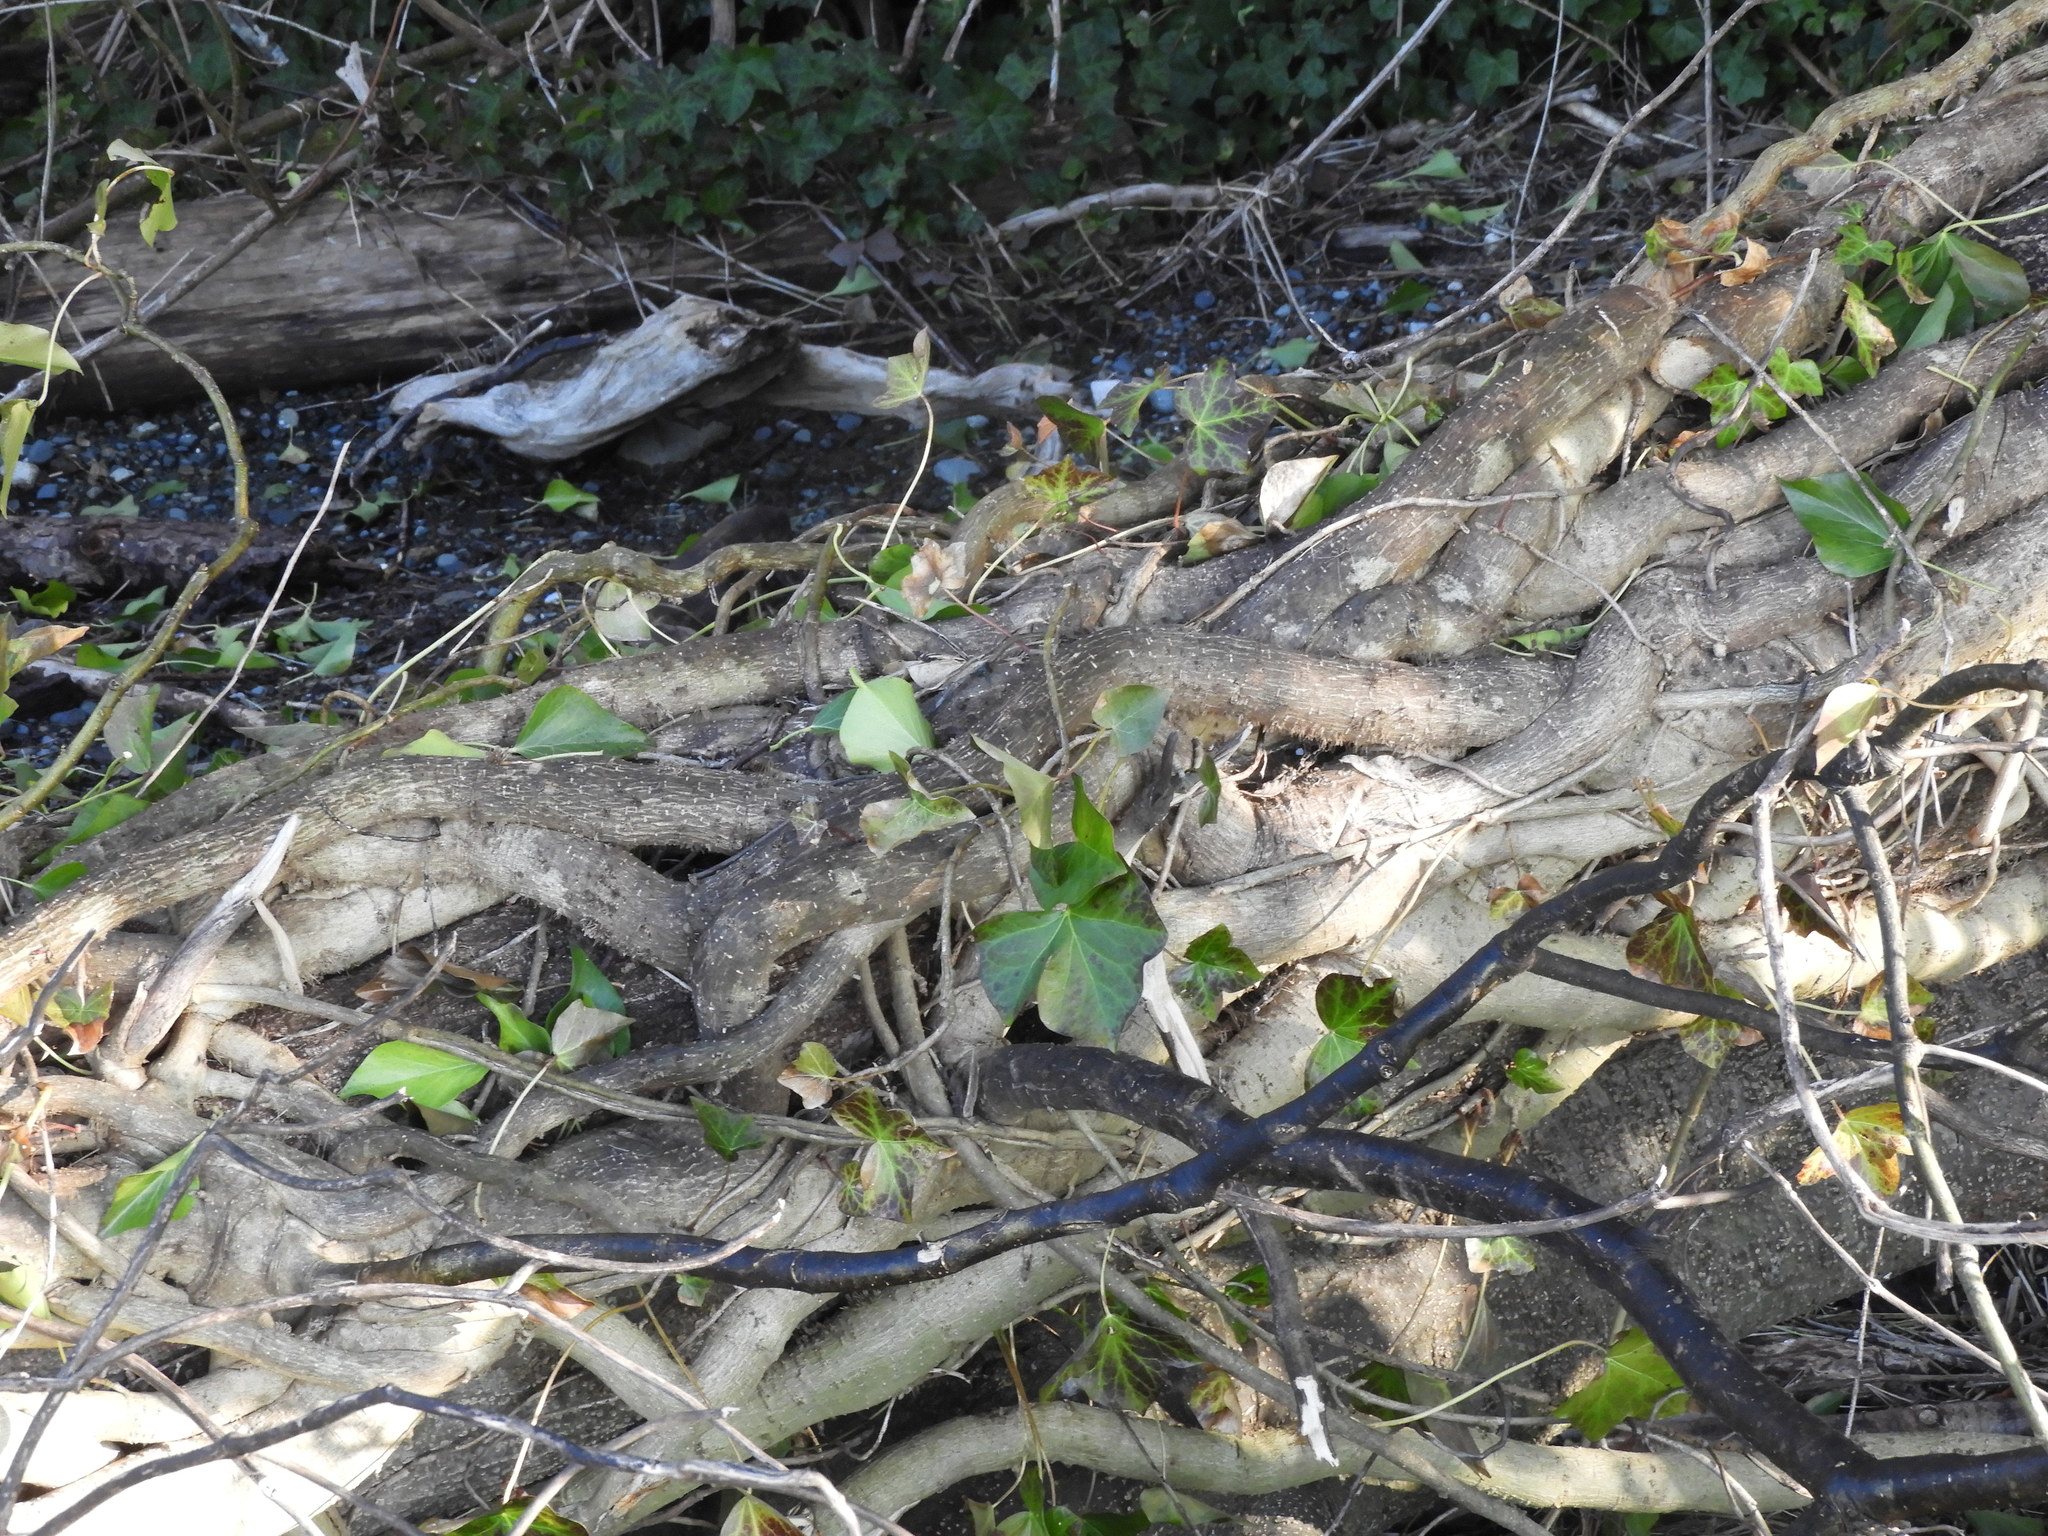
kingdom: Plantae
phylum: Tracheophyta
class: Magnoliopsida
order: Apiales
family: Araliaceae
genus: Hedera
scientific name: Hedera helix
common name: Ivy
